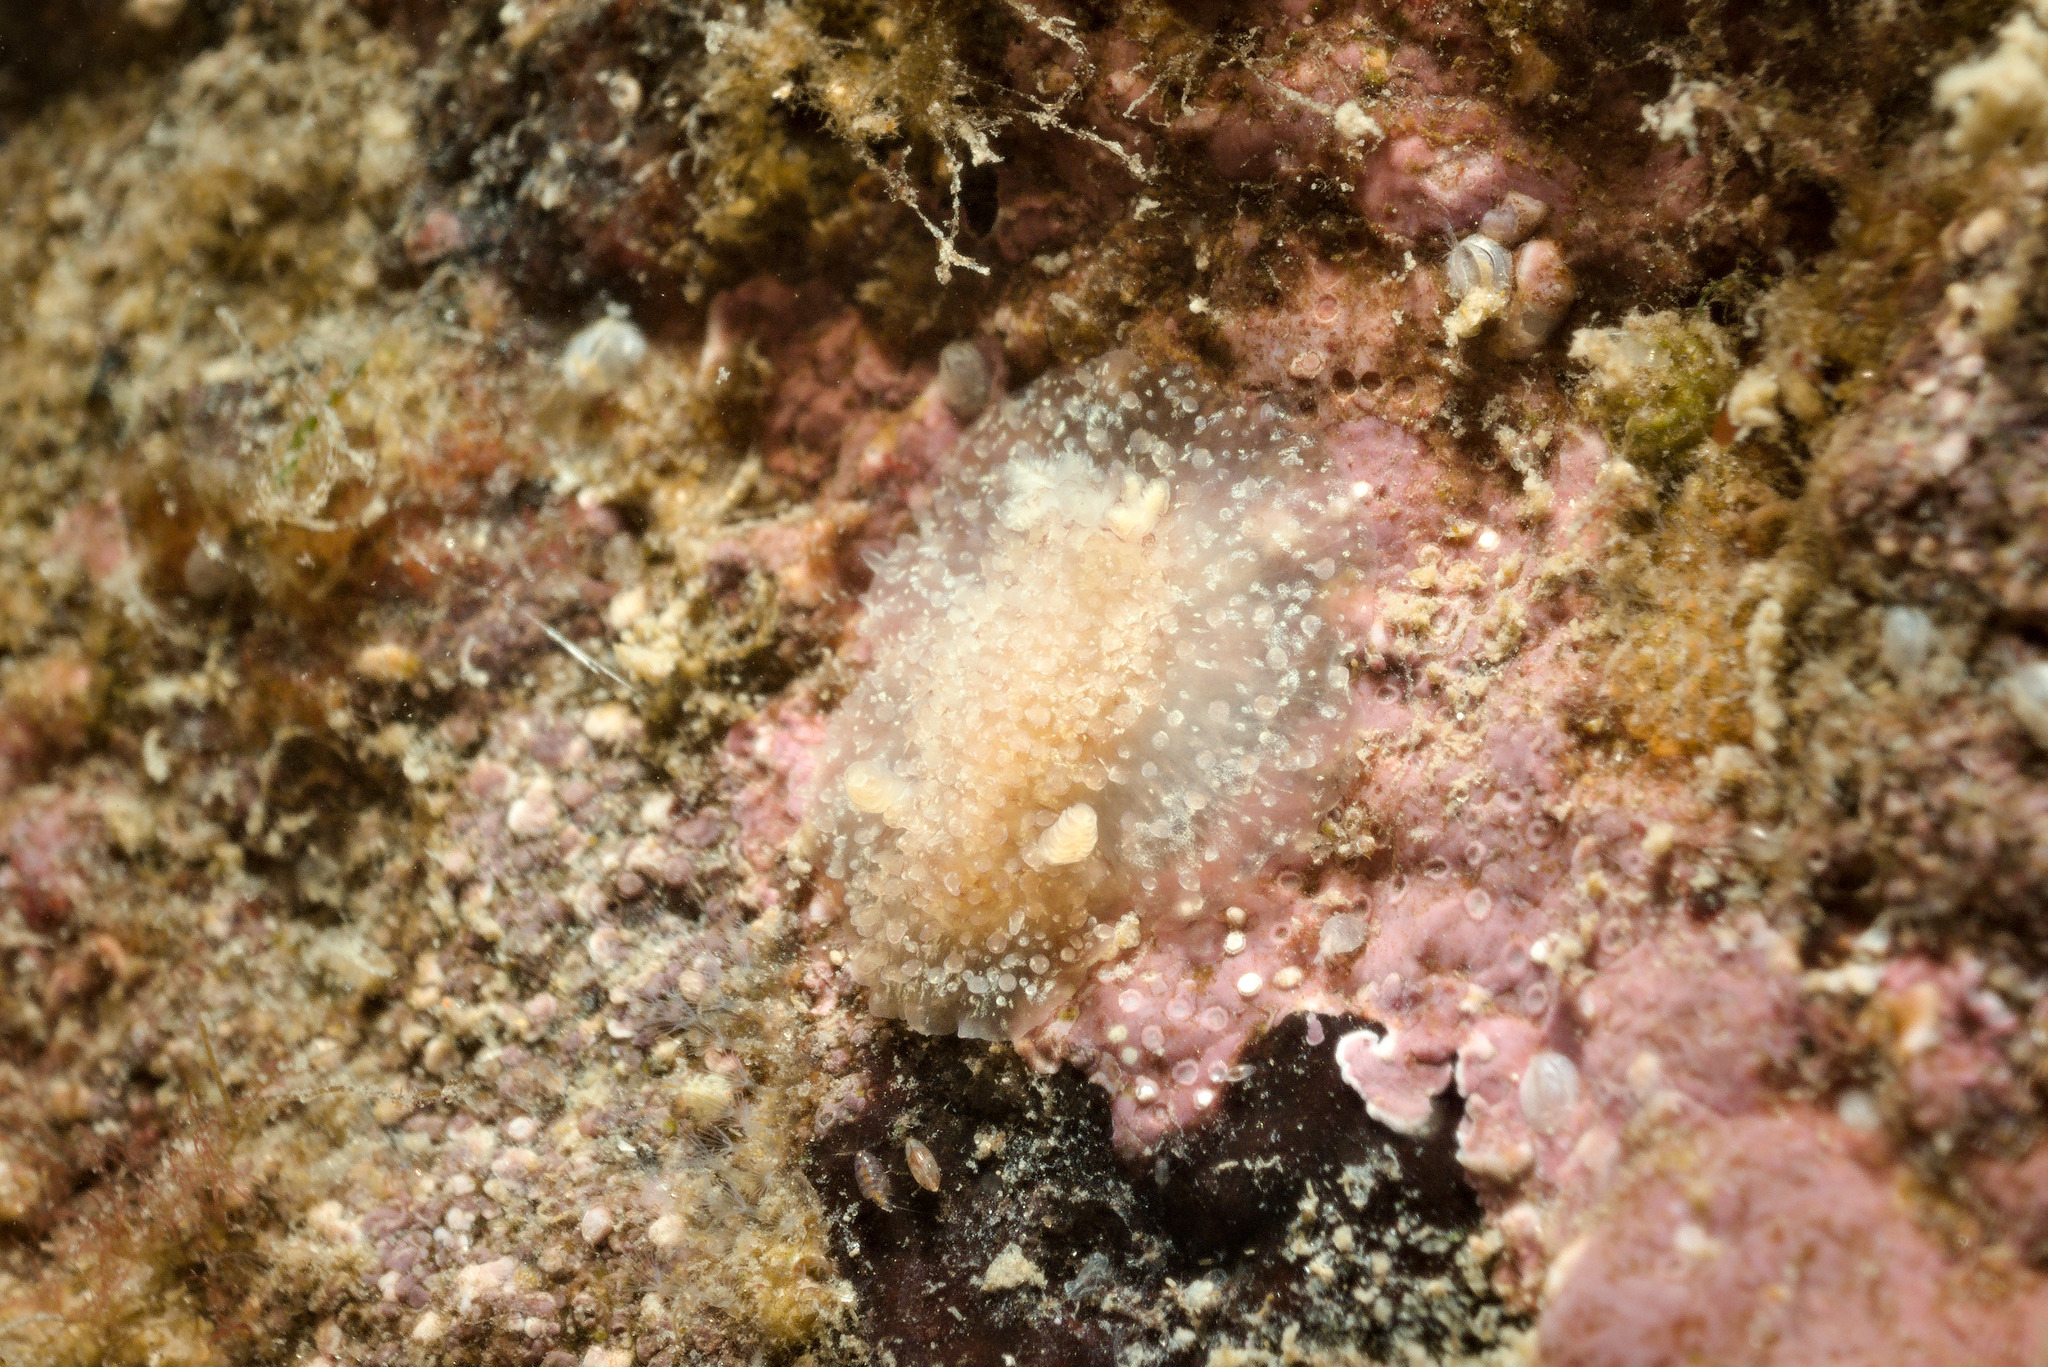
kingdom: Animalia
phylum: Mollusca
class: Gastropoda
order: Nudibranchia
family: Onchidorididae
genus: Acanthodoris
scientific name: Acanthodoris pilosa
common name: Hairy spiny doris
